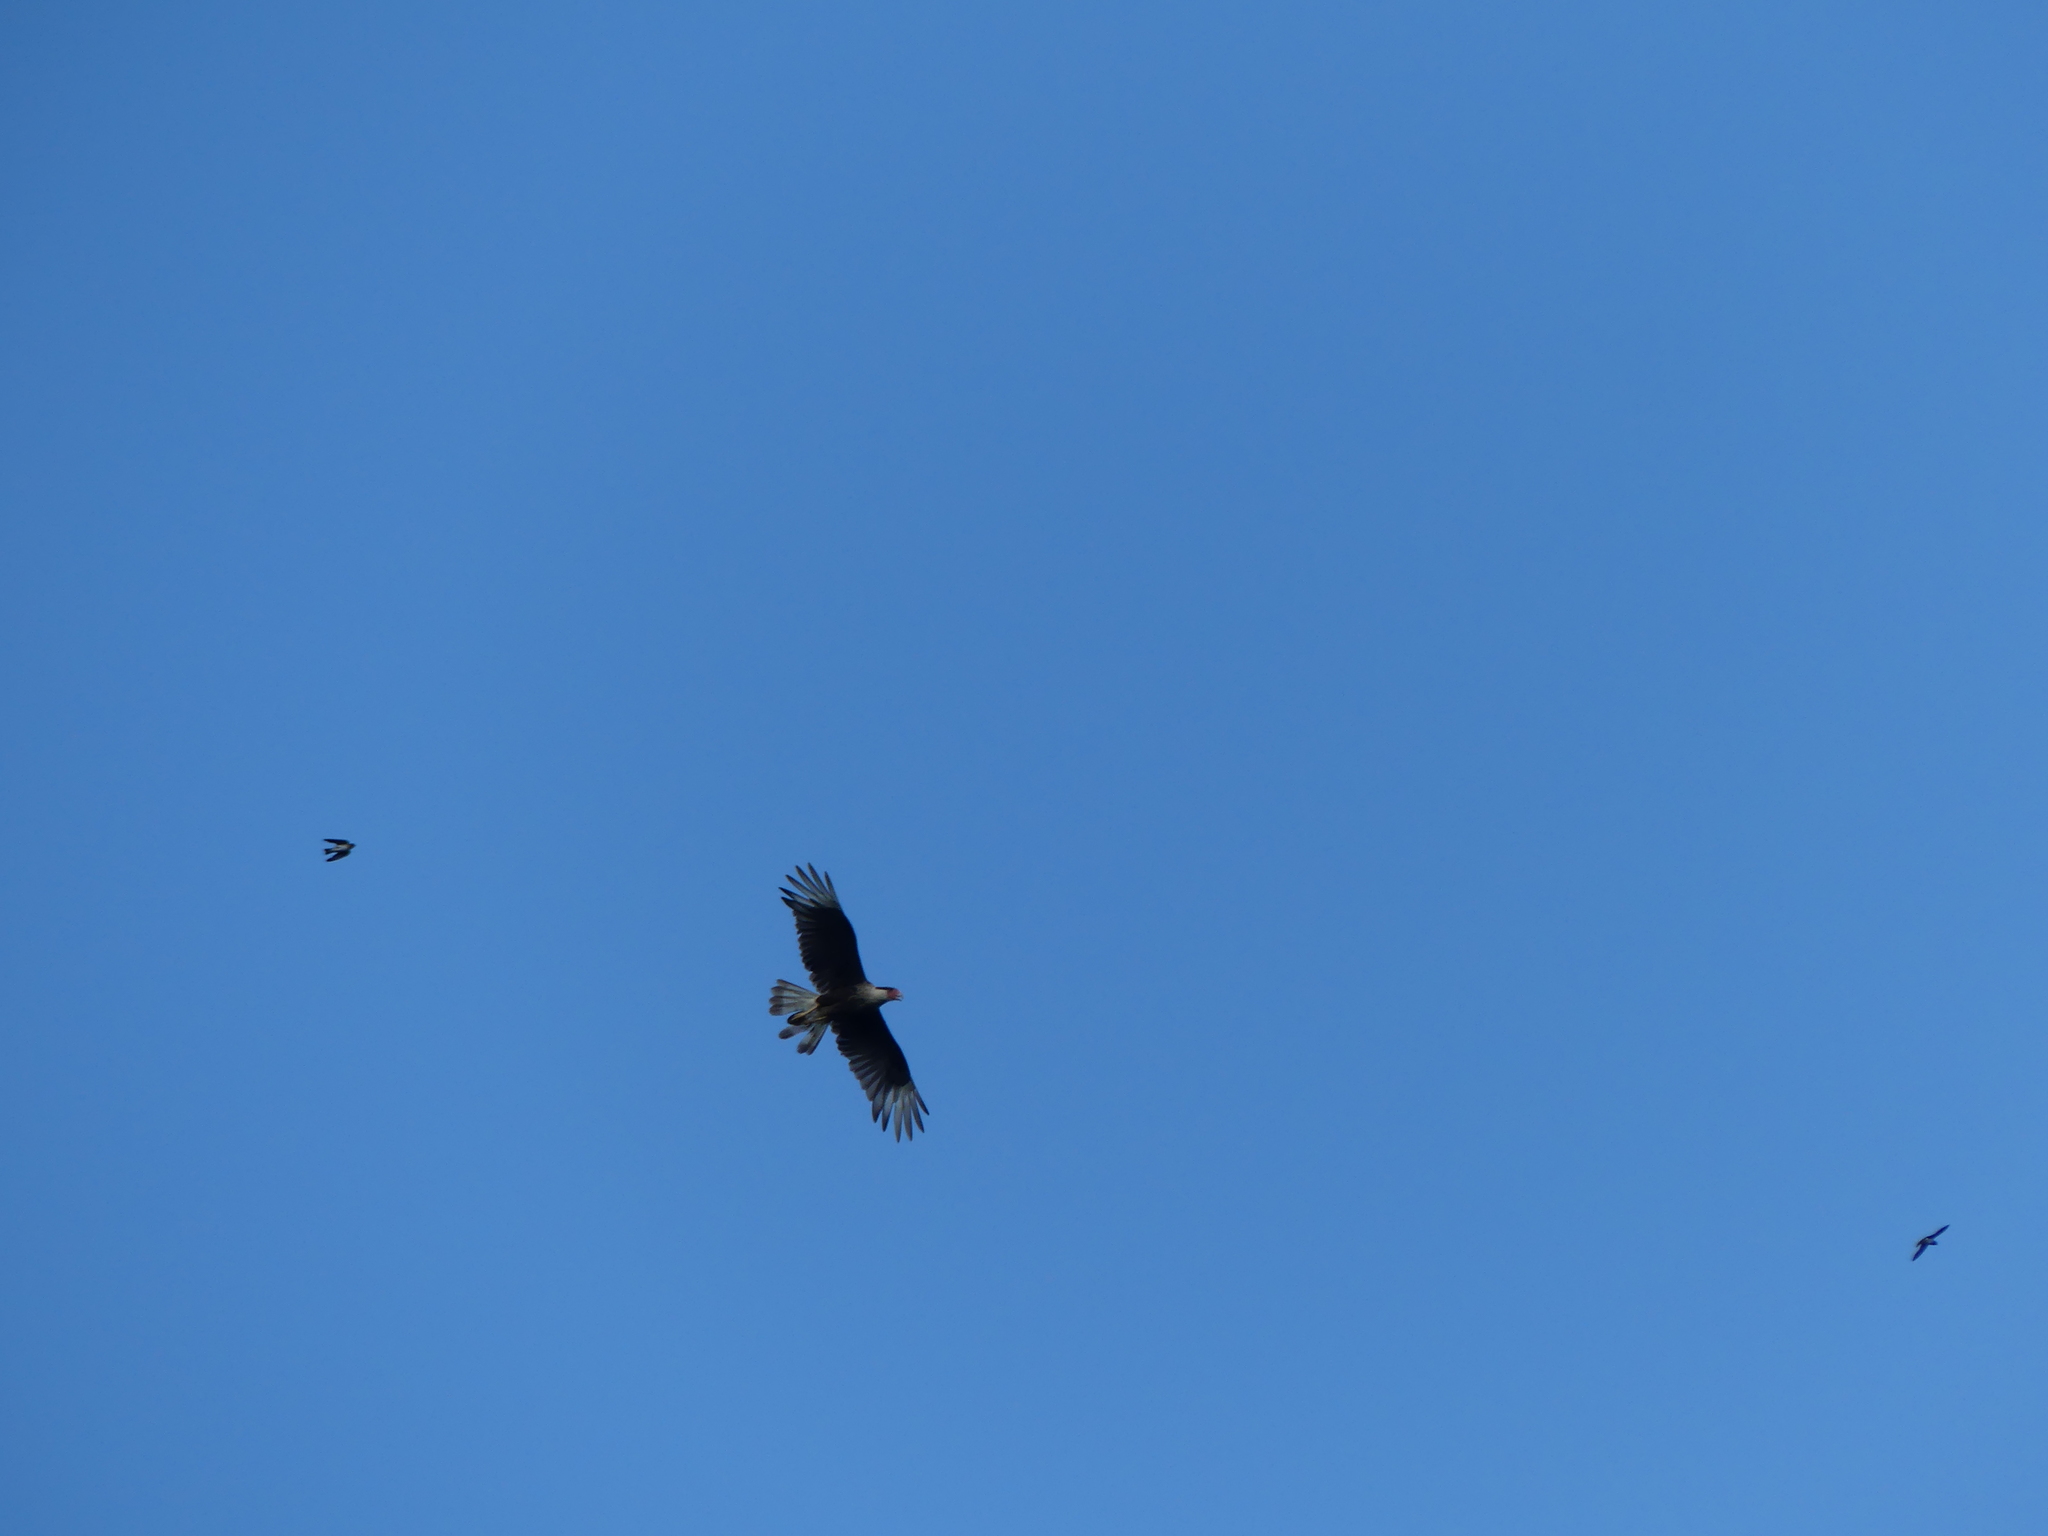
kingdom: Animalia
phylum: Chordata
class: Aves
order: Falconiformes
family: Falconidae
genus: Caracara
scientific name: Caracara plancus
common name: Southern caracara
